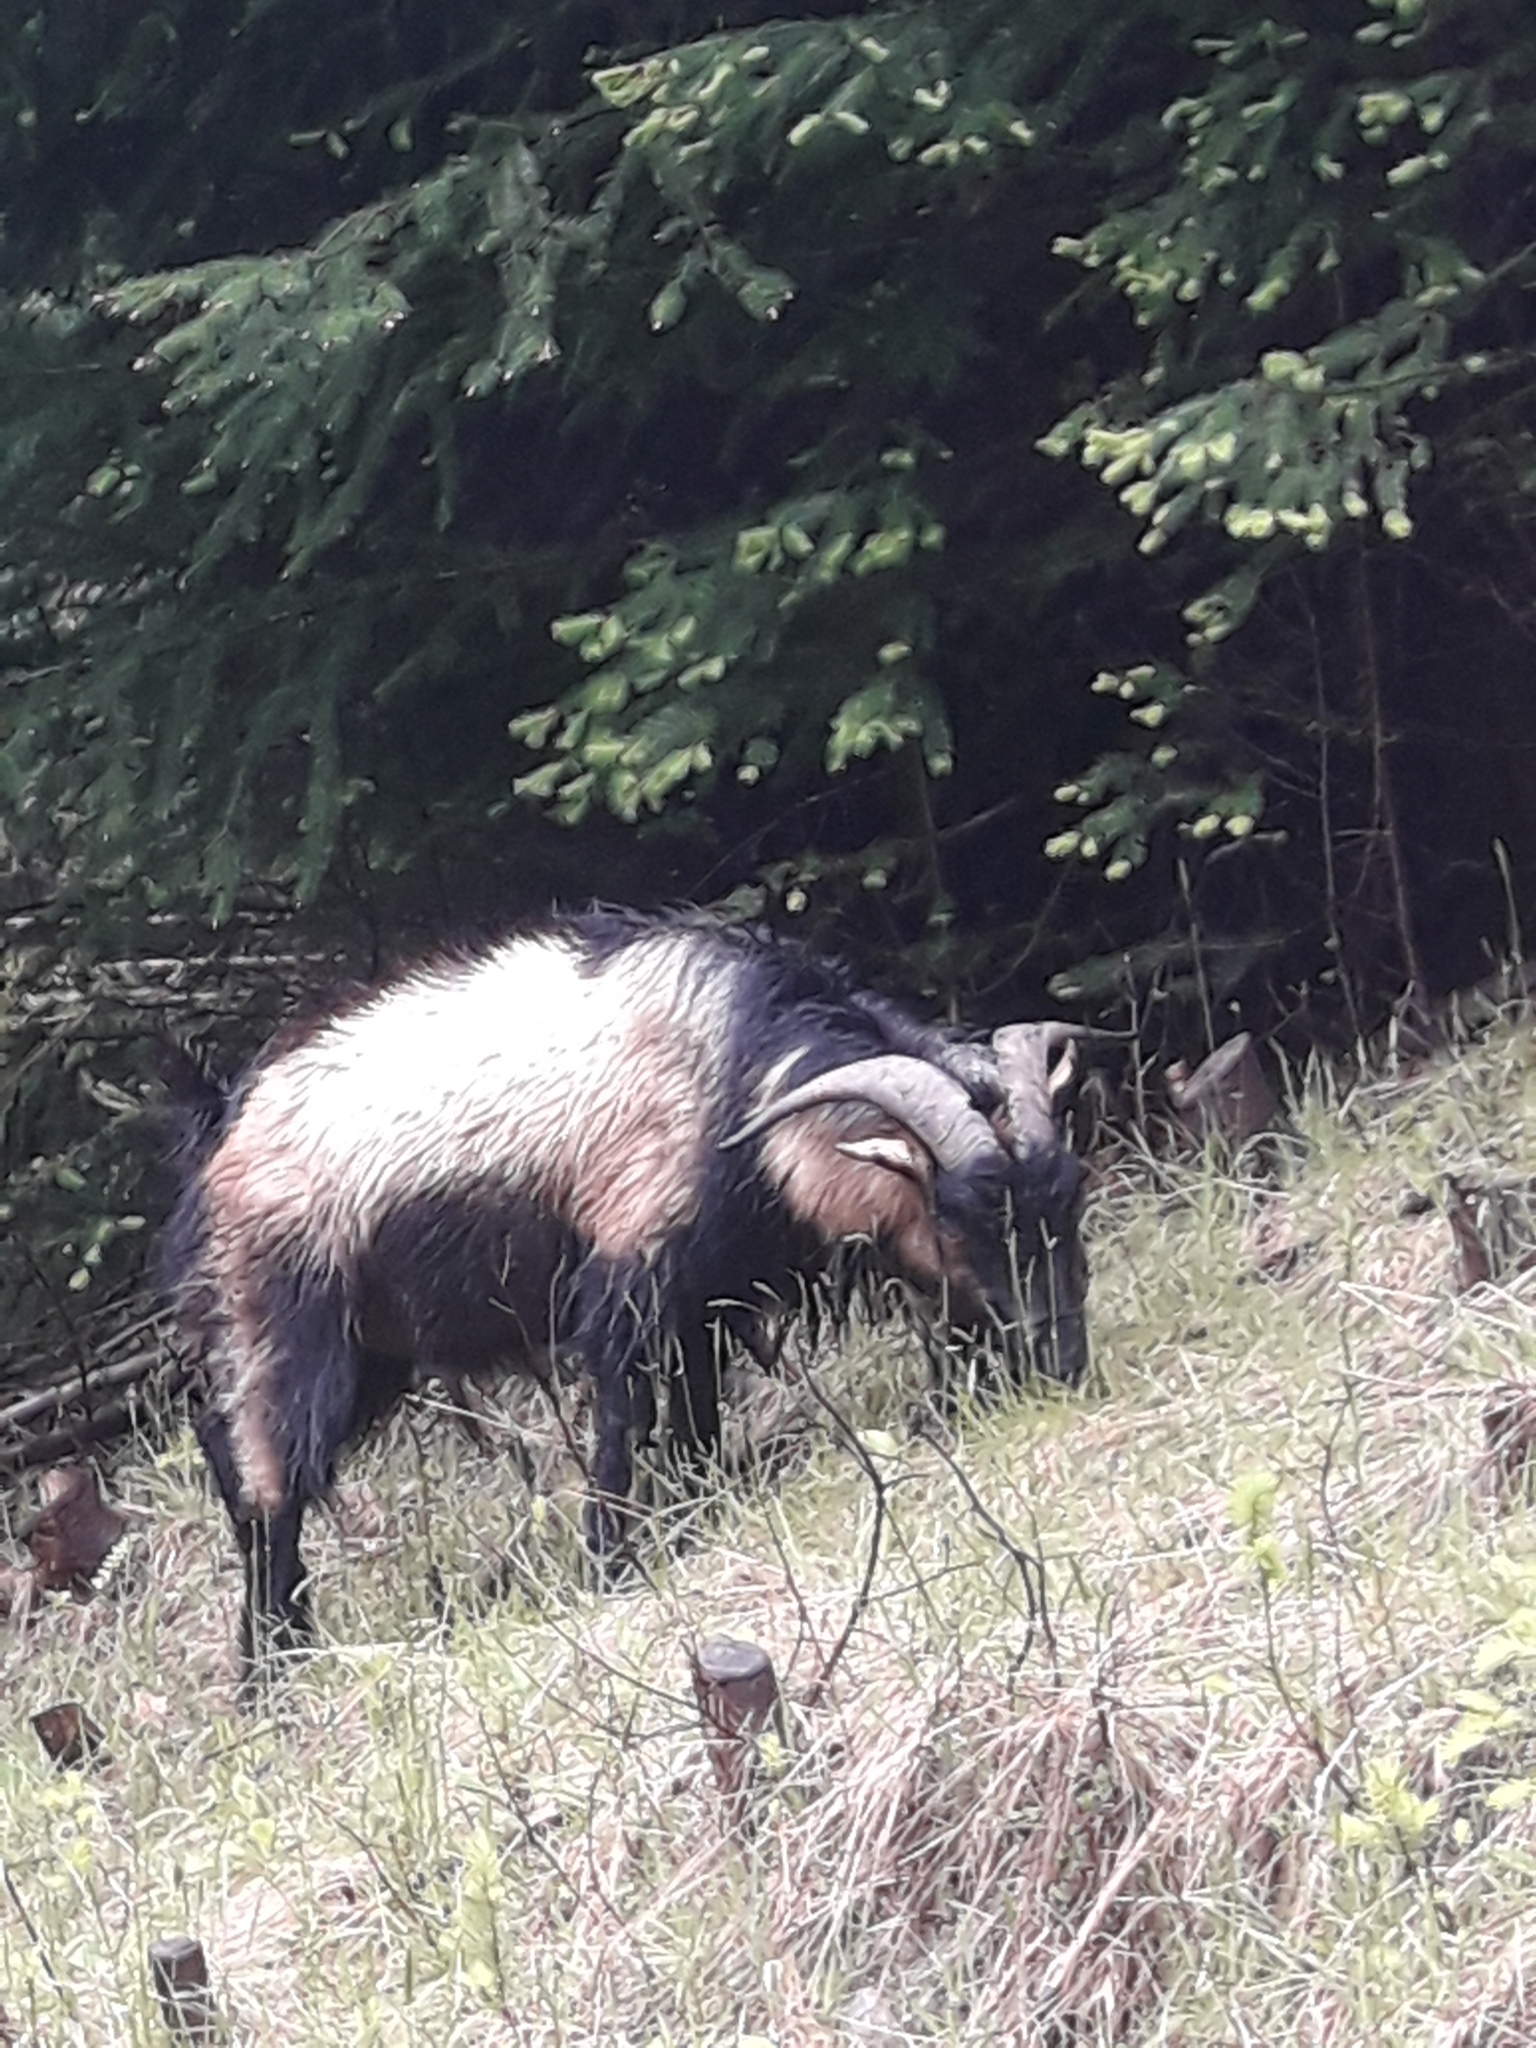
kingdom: Animalia
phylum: Chordata
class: Mammalia
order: Artiodactyla
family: Bovidae
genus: Capra
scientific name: Capra hircus
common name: Domestic goat
